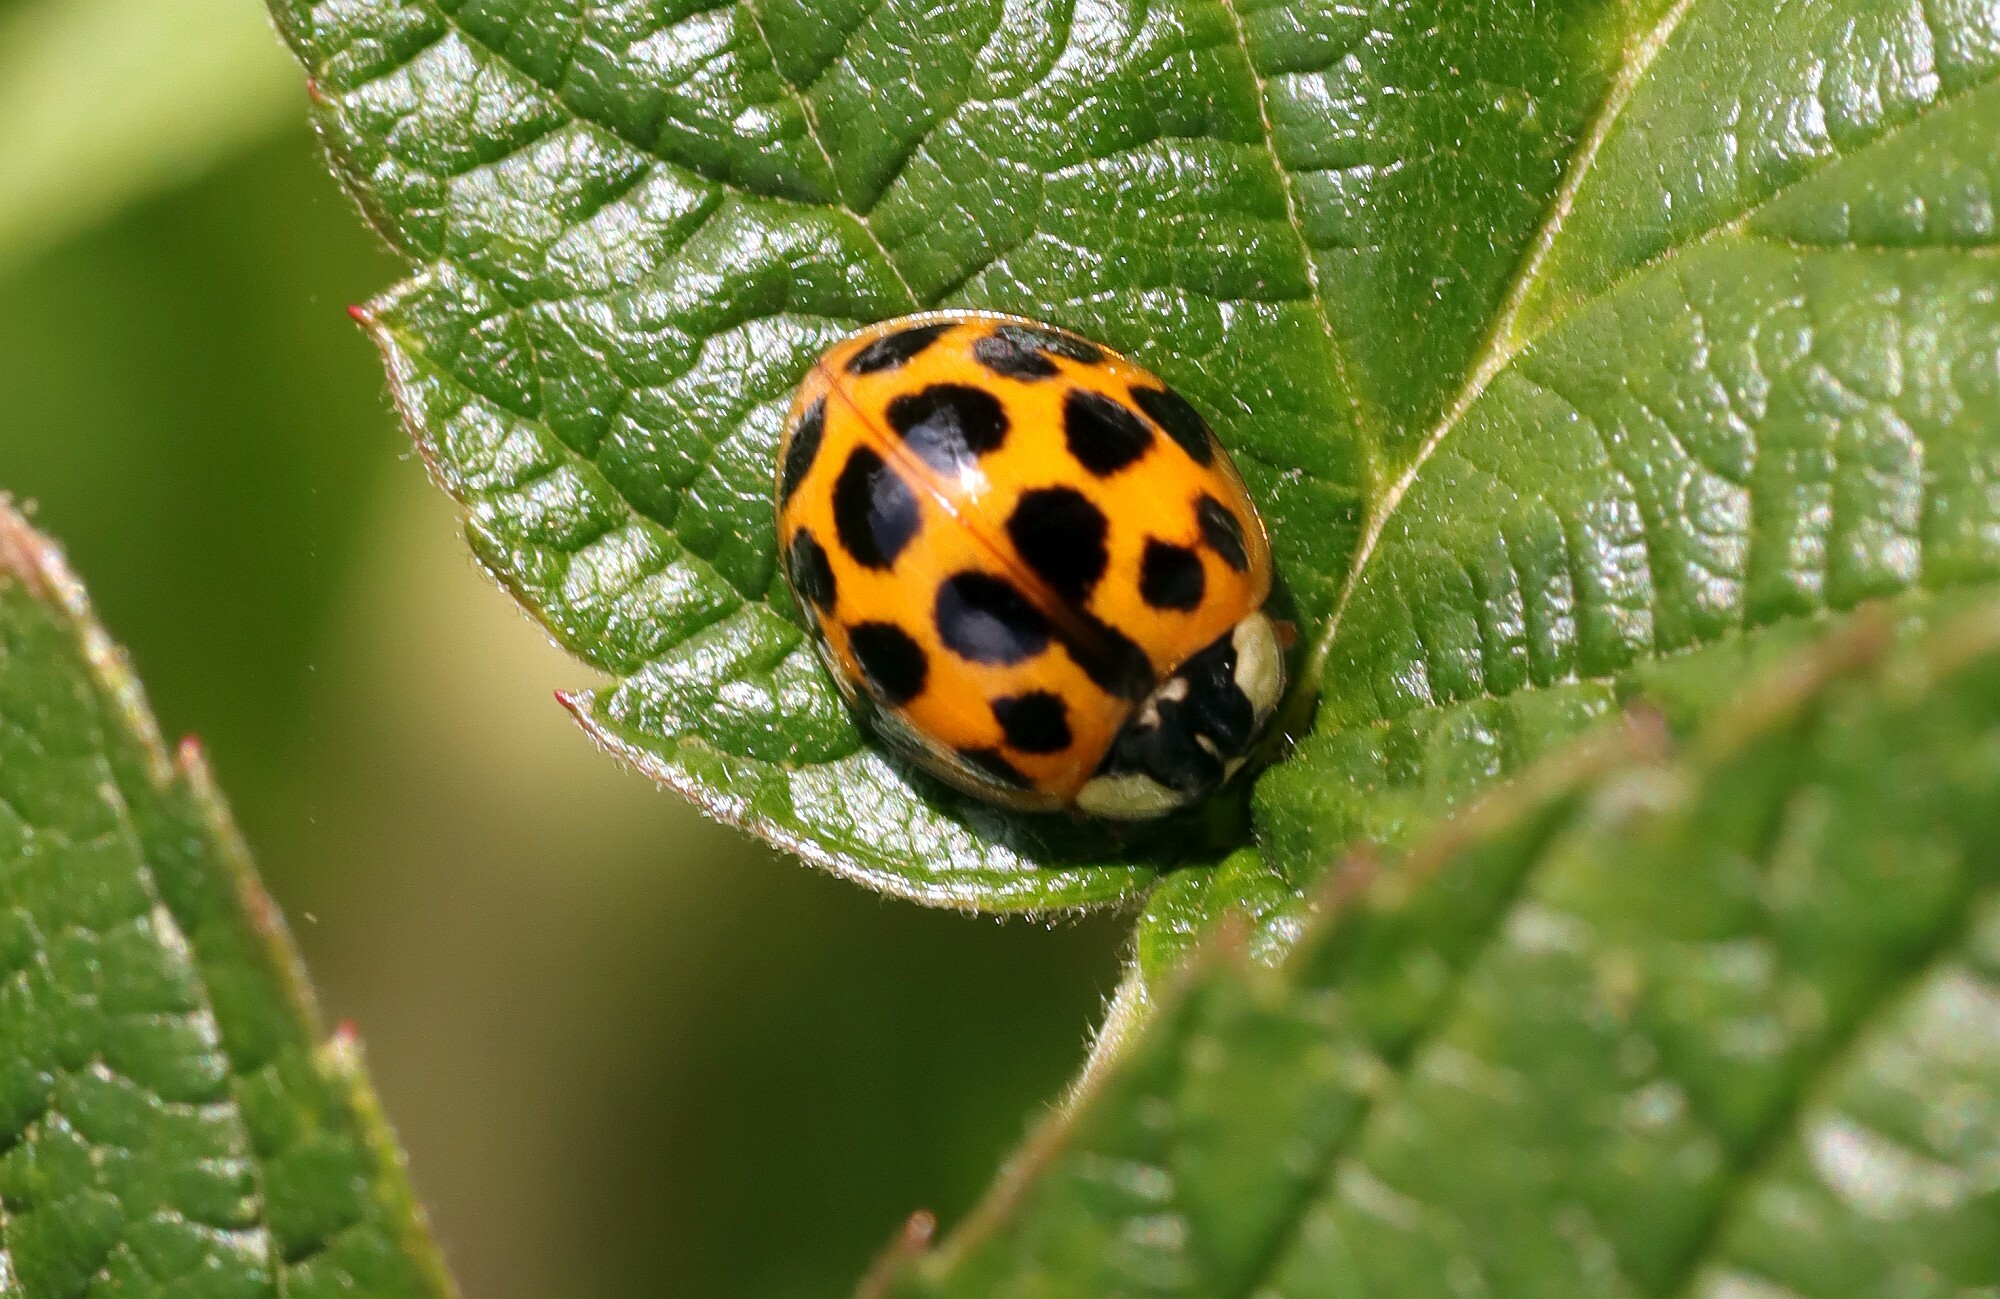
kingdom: Animalia
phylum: Arthropoda
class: Insecta
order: Coleoptera
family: Coccinellidae
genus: Harmonia
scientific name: Harmonia axyridis
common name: Harlequin ladybird
